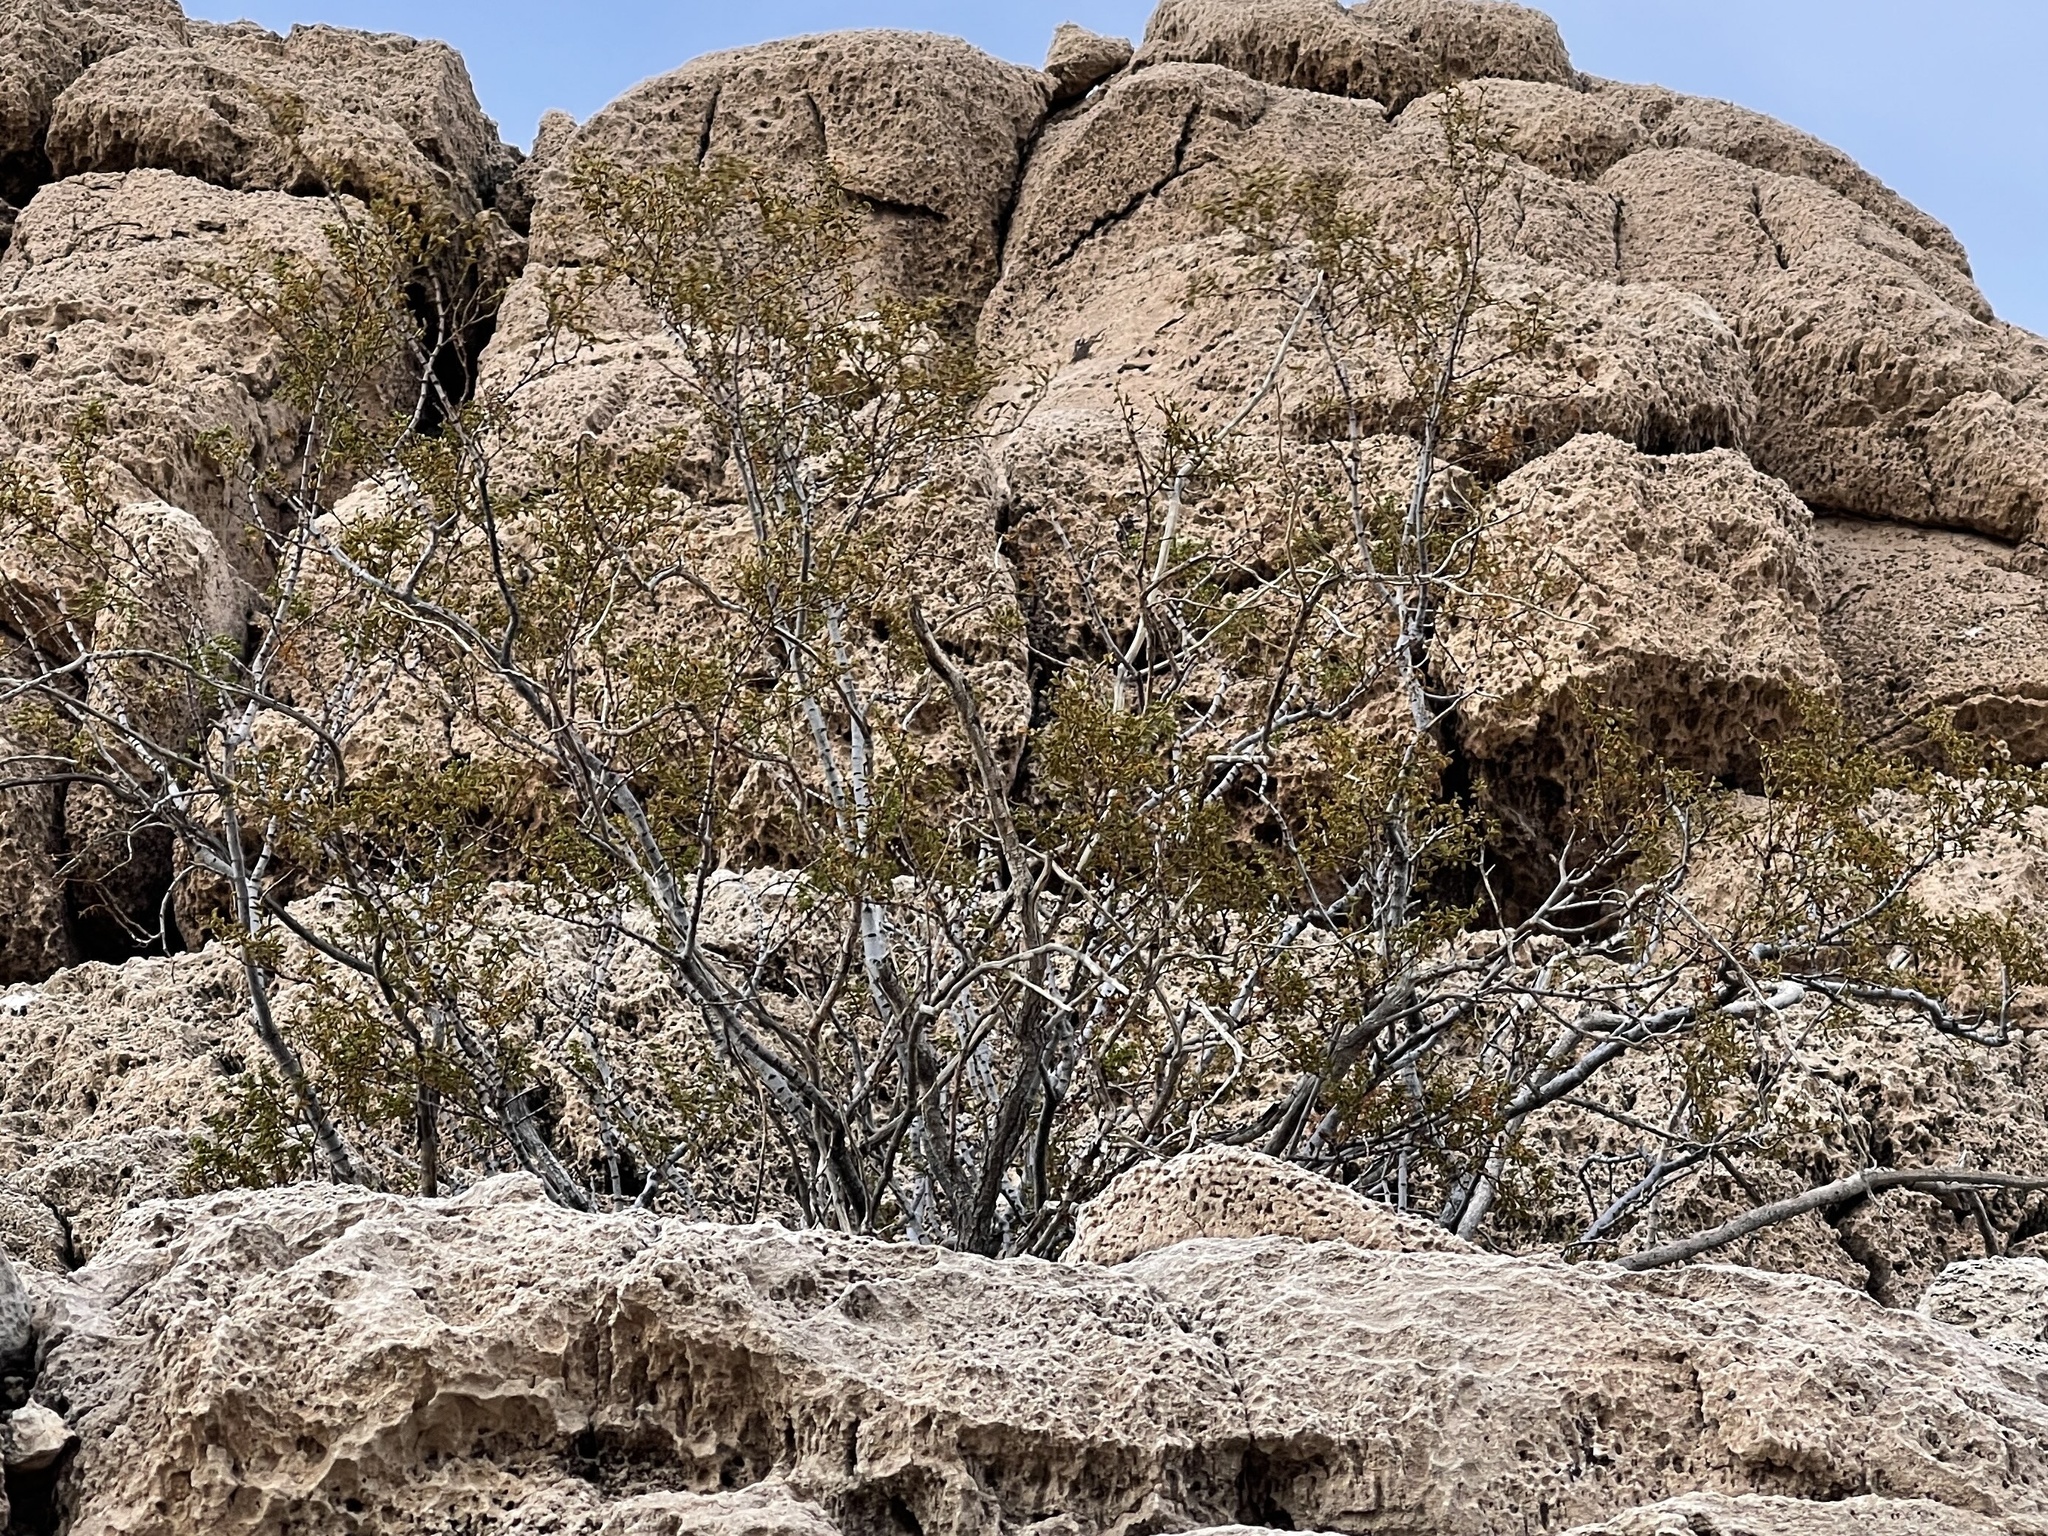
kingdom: Plantae
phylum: Tracheophyta
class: Magnoliopsida
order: Zygophyllales
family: Zygophyllaceae
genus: Larrea
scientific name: Larrea tridentata
